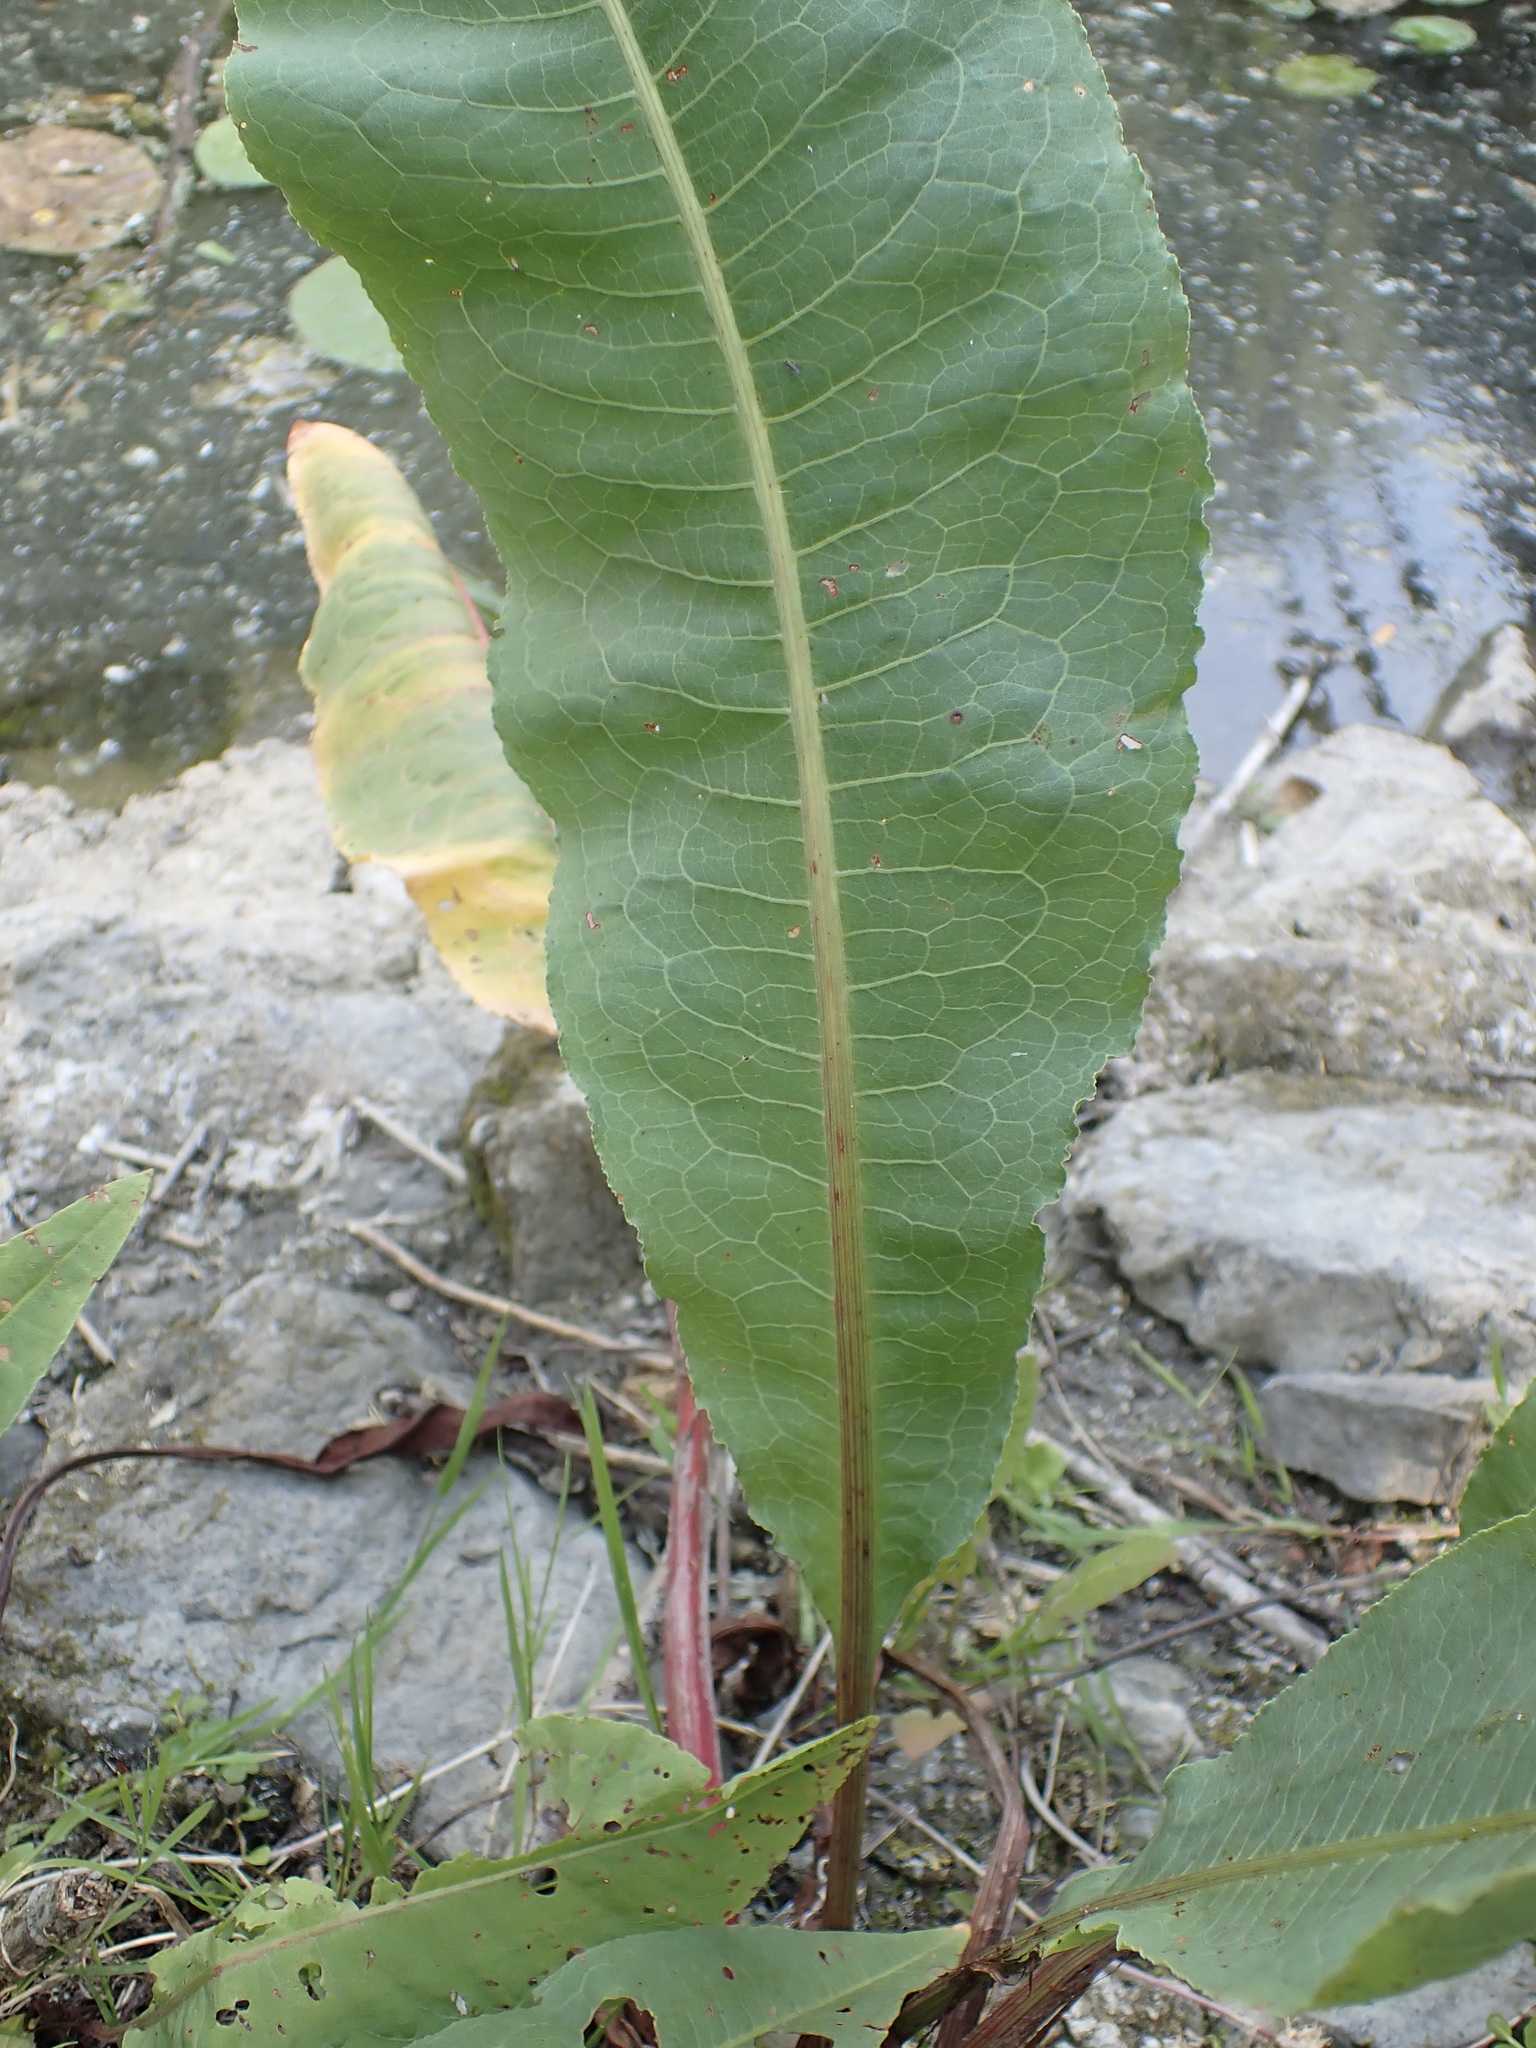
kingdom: Plantae
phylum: Tracheophyta
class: Magnoliopsida
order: Caryophyllales
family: Polygonaceae
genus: Rumex
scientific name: Rumex hydrolapathum
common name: Water dock
